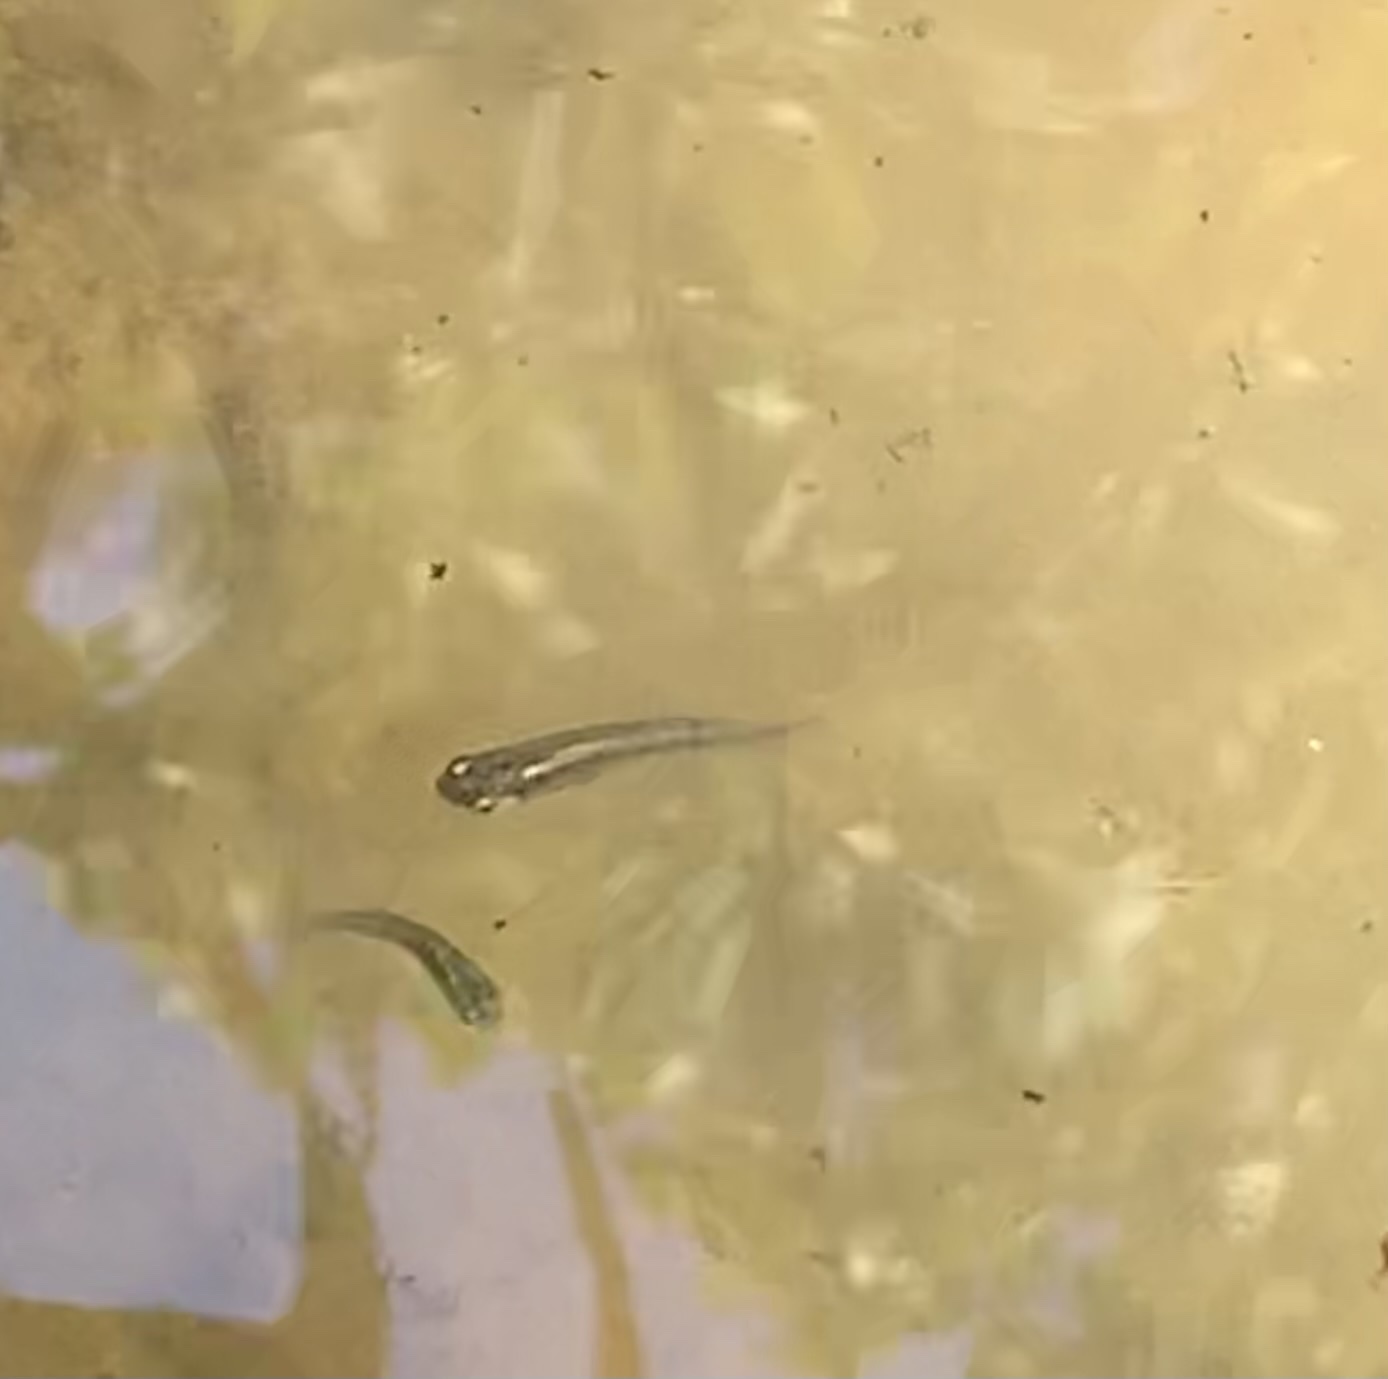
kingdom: Animalia
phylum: Chordata
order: Cyprinodontiformes
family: Poeciliidae
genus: Gambusia
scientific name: Gambusia affinis
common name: Mosquitofish
